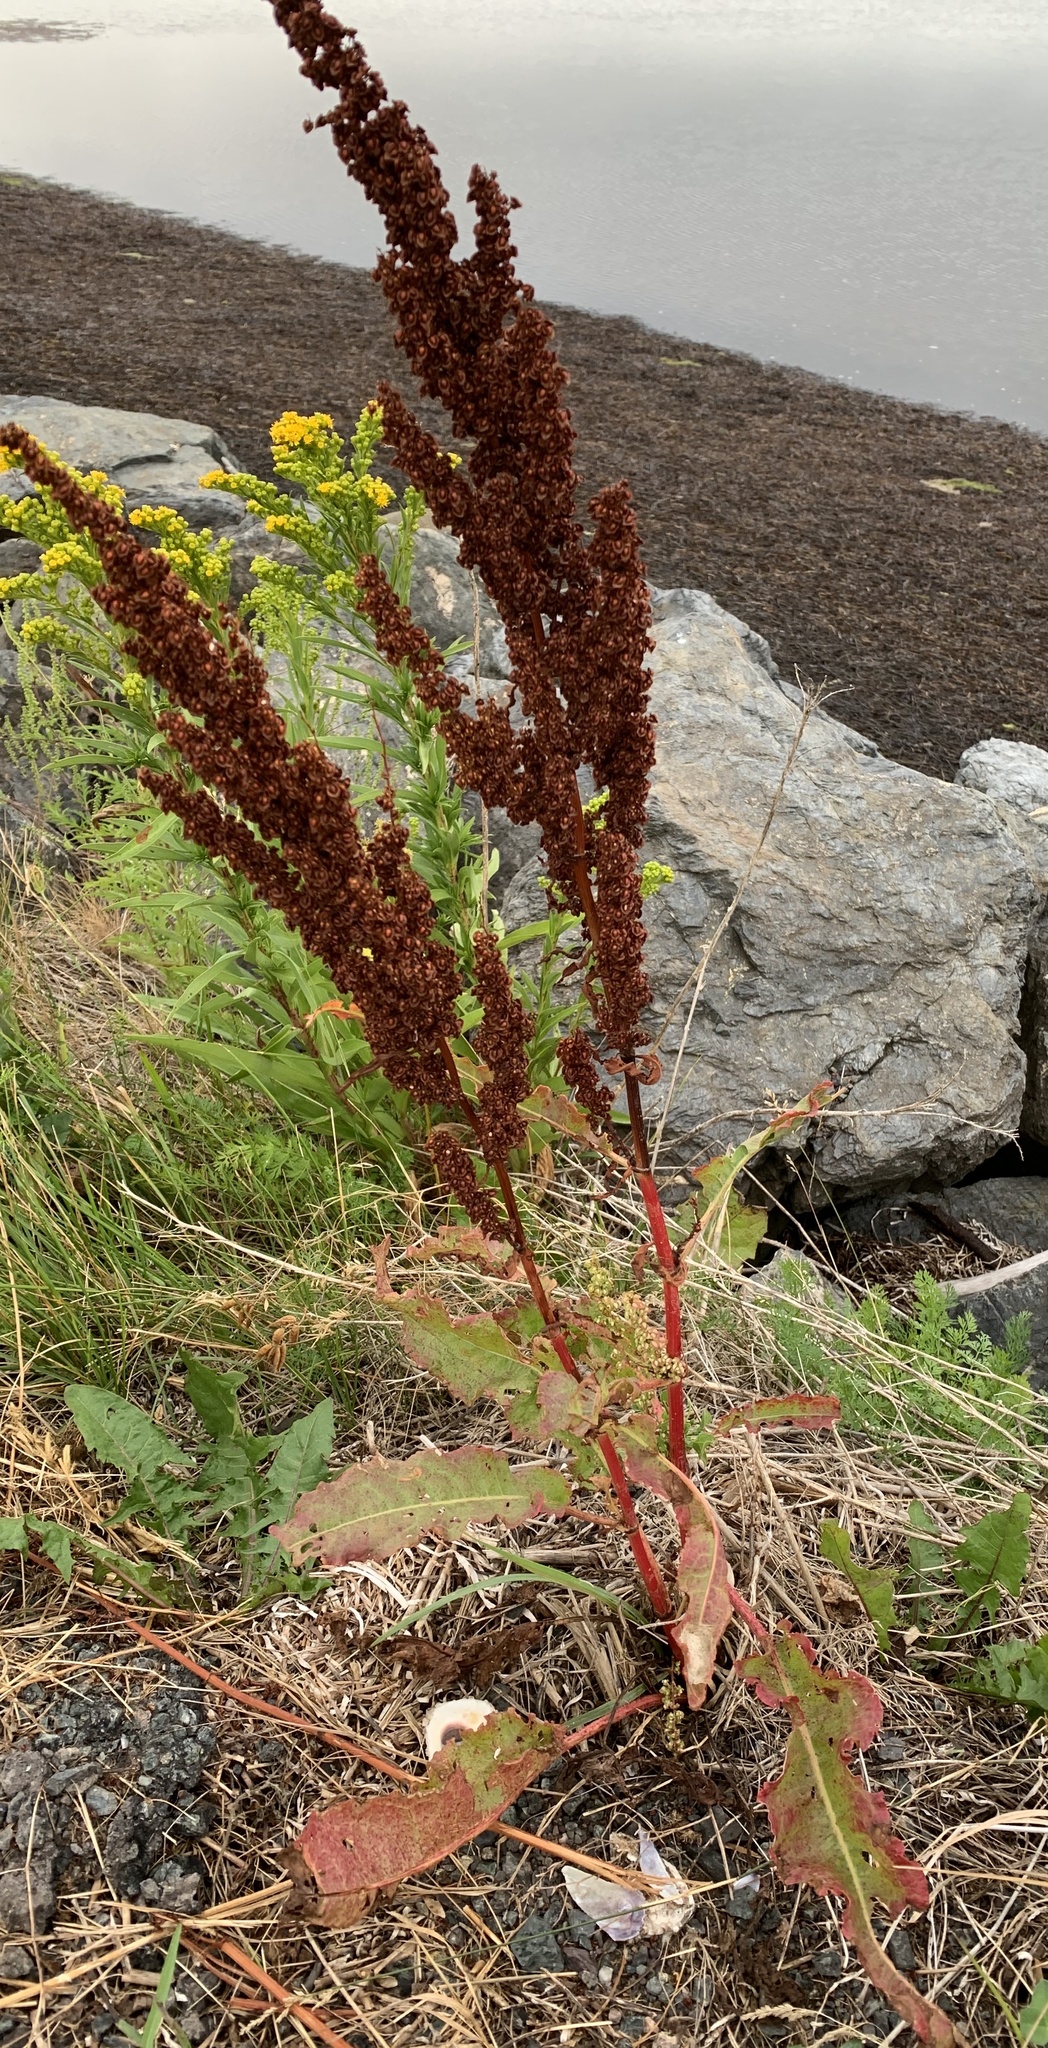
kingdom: Plantae
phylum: Tracheophyta
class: Magnoliopsida
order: Caryophyllales
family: Polygonaceae
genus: Rumex
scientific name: Rumex crispus
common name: Curled dock
